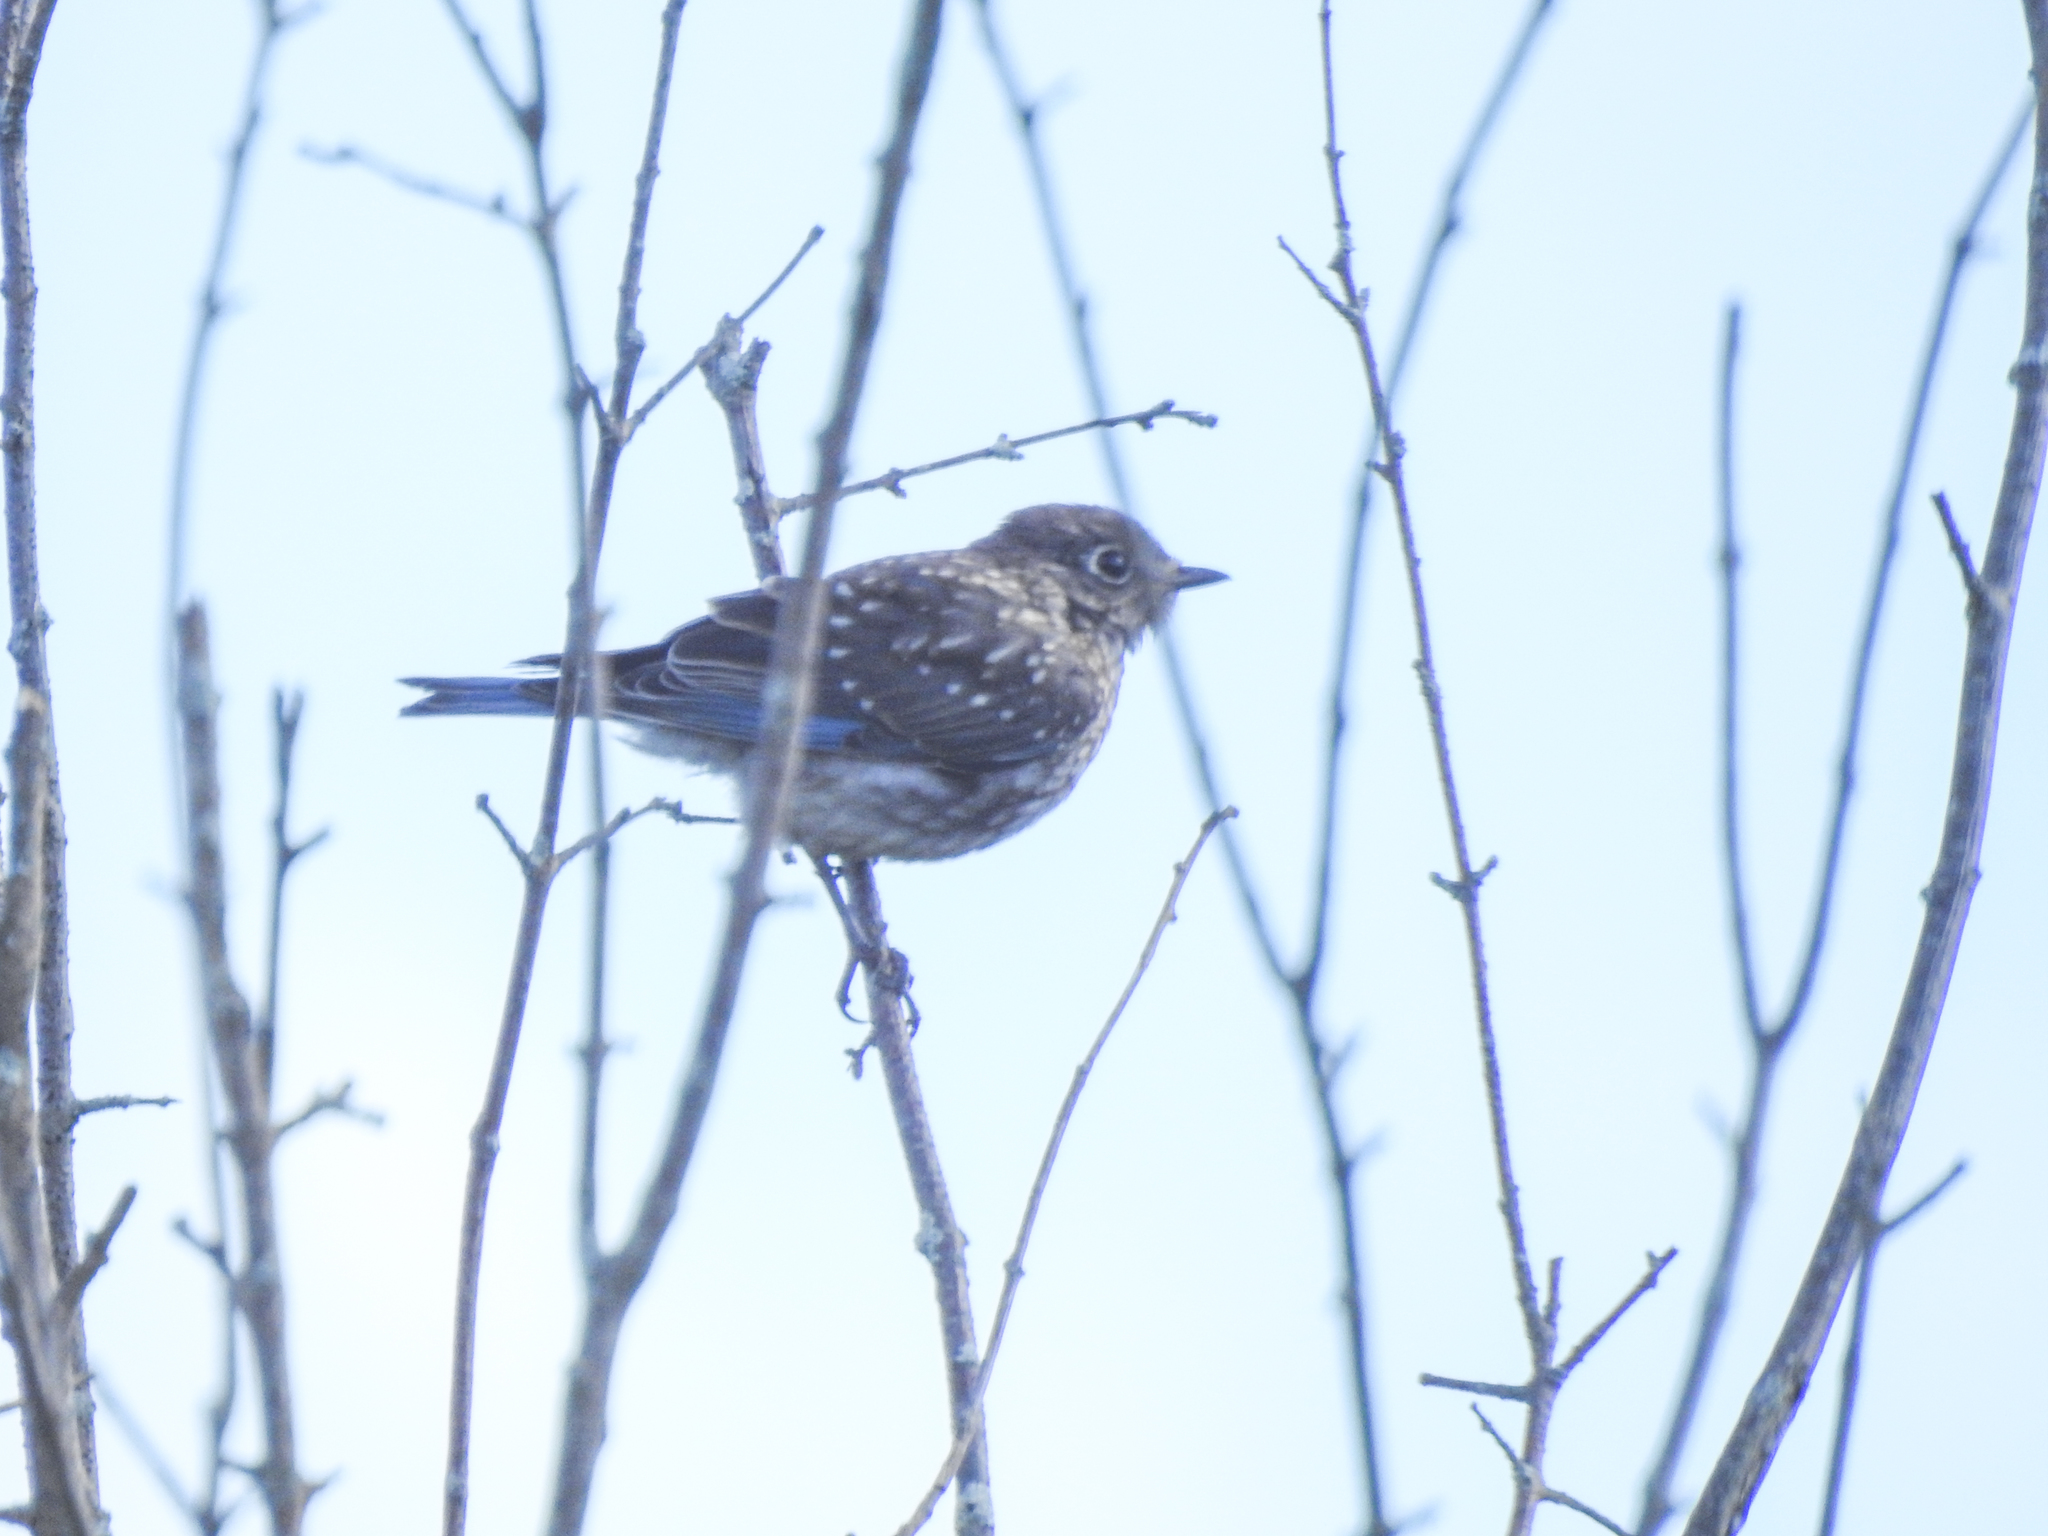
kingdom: Animalia
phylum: Chordata
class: Aves
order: Passeriformes
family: Turdidae
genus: Sialia
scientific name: Sialia sialis
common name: Eastern bluebird
